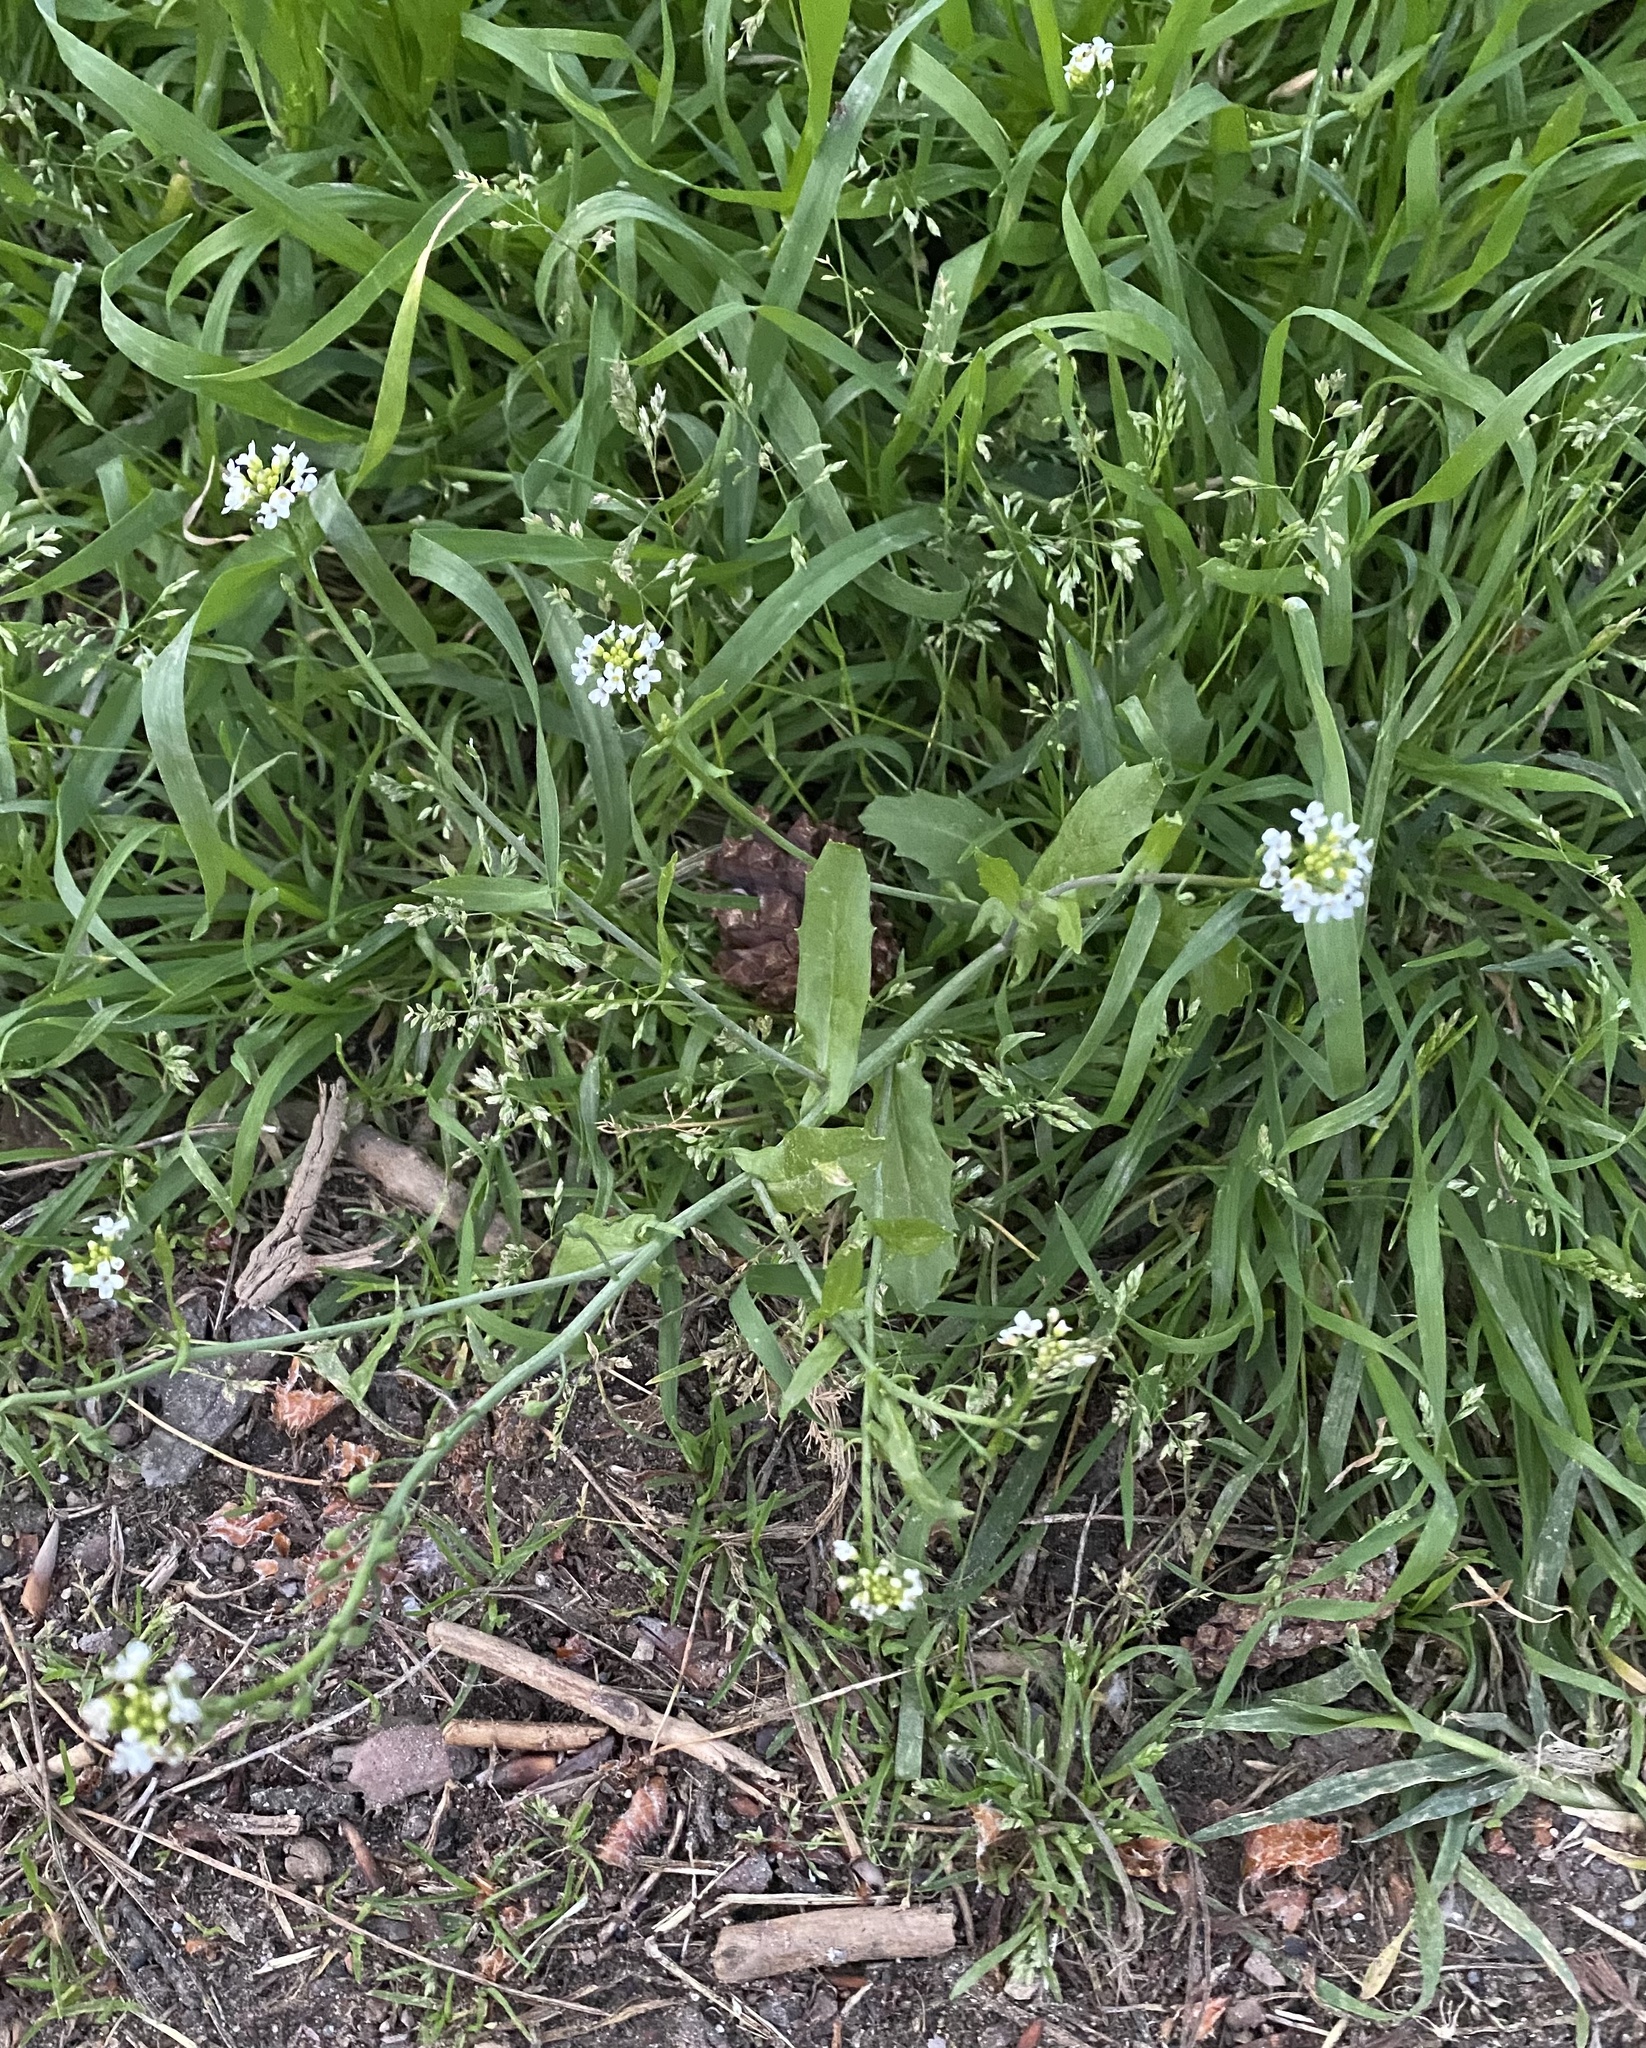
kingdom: Plantae
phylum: Tracheophyta
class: Magnoliopsida
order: Brassicales
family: Brassicaceae
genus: Calepina
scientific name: Calepina irregularis
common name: White ballmustard
